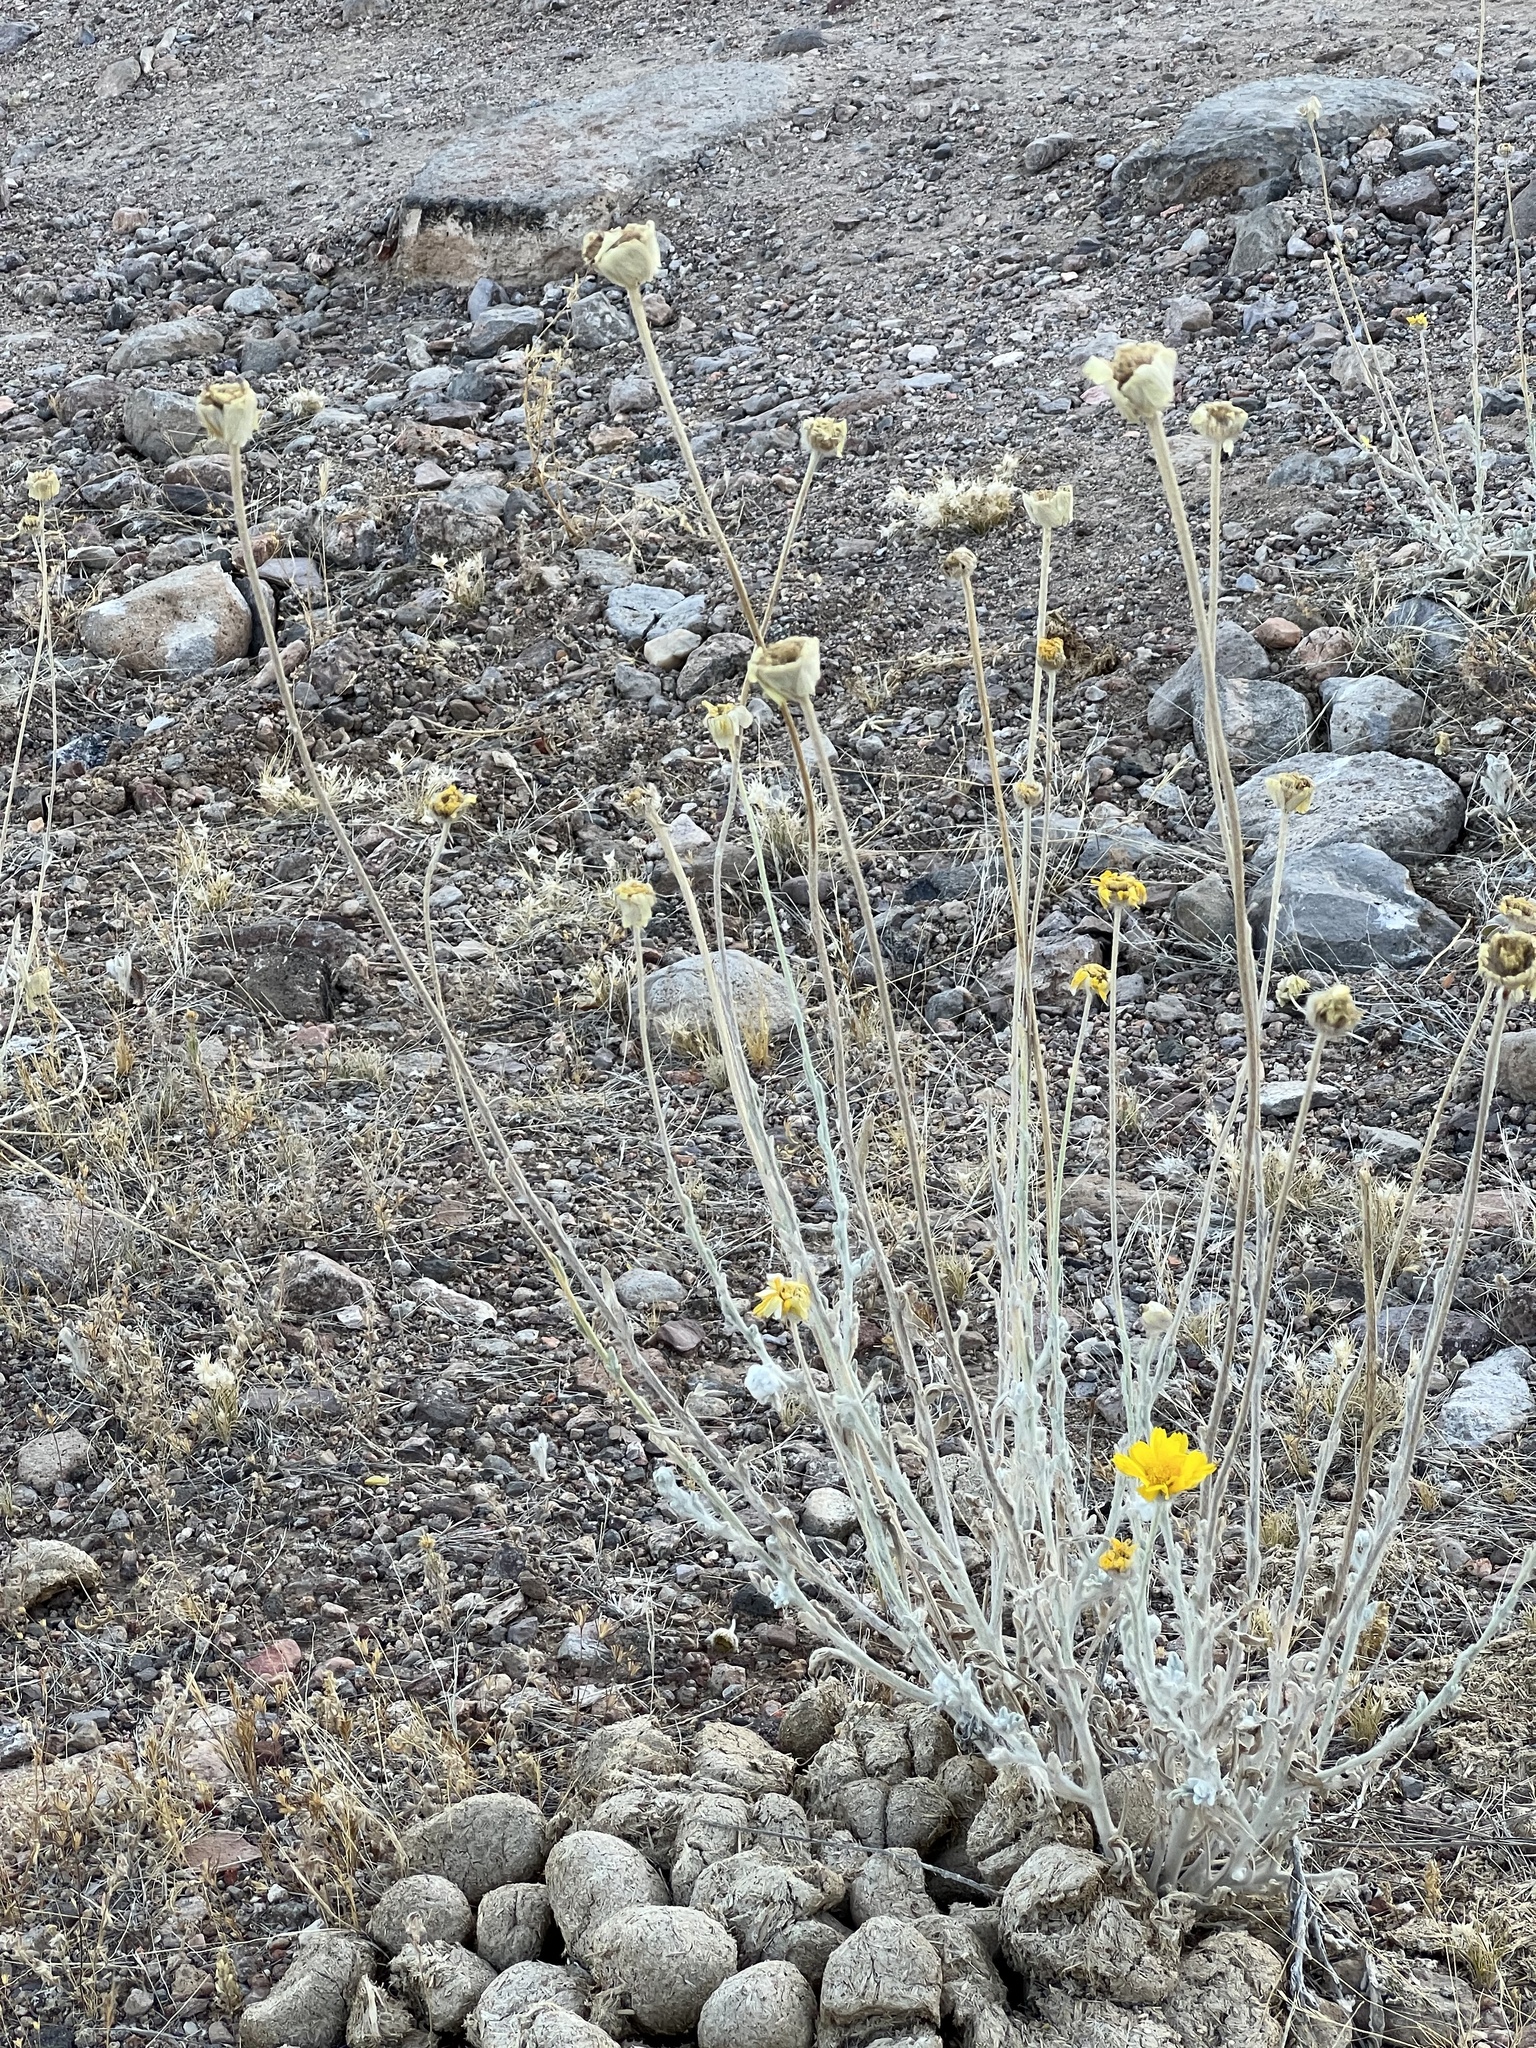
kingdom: Plantae
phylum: Tracheophyta
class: Magnoliopsida
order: Asterales
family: Asteraceae
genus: Baileya
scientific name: Baileya multiradiata
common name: Desert-marigold
